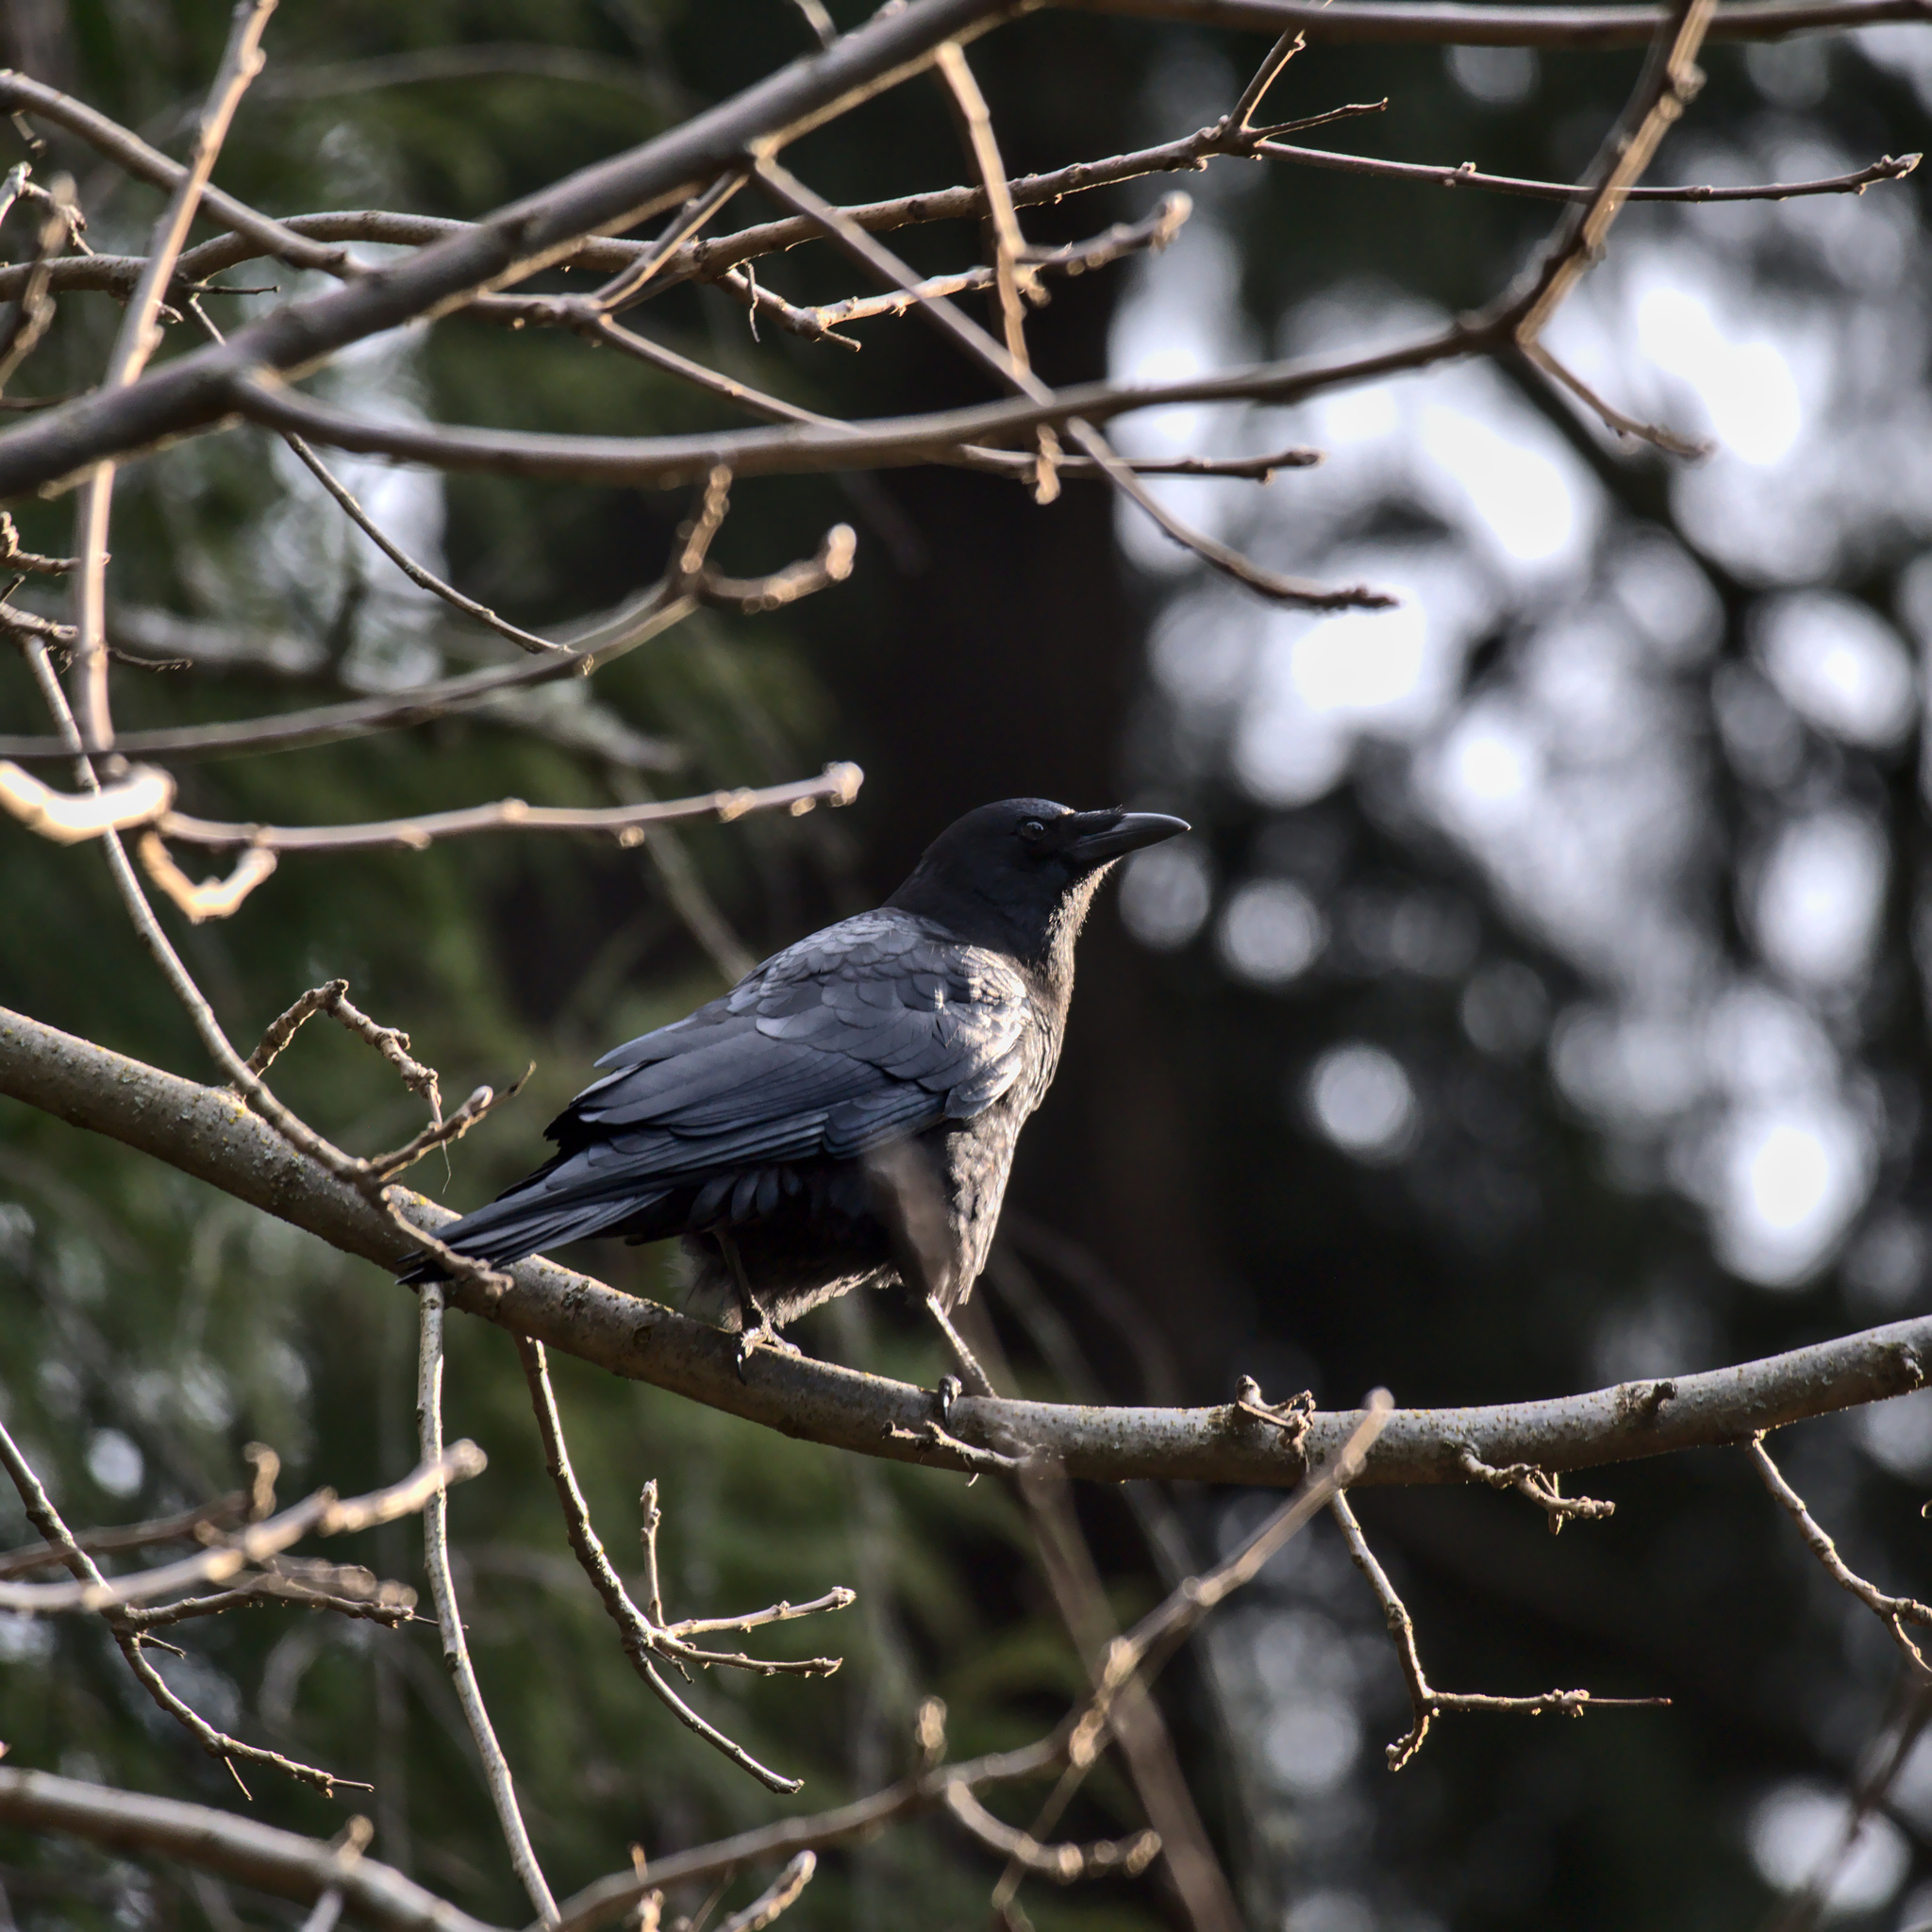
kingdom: Animalia
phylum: Chordata
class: Aves
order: Passeriformes
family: Corvidae
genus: Corvus
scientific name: Corvus brachyrhynchos
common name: American crow
